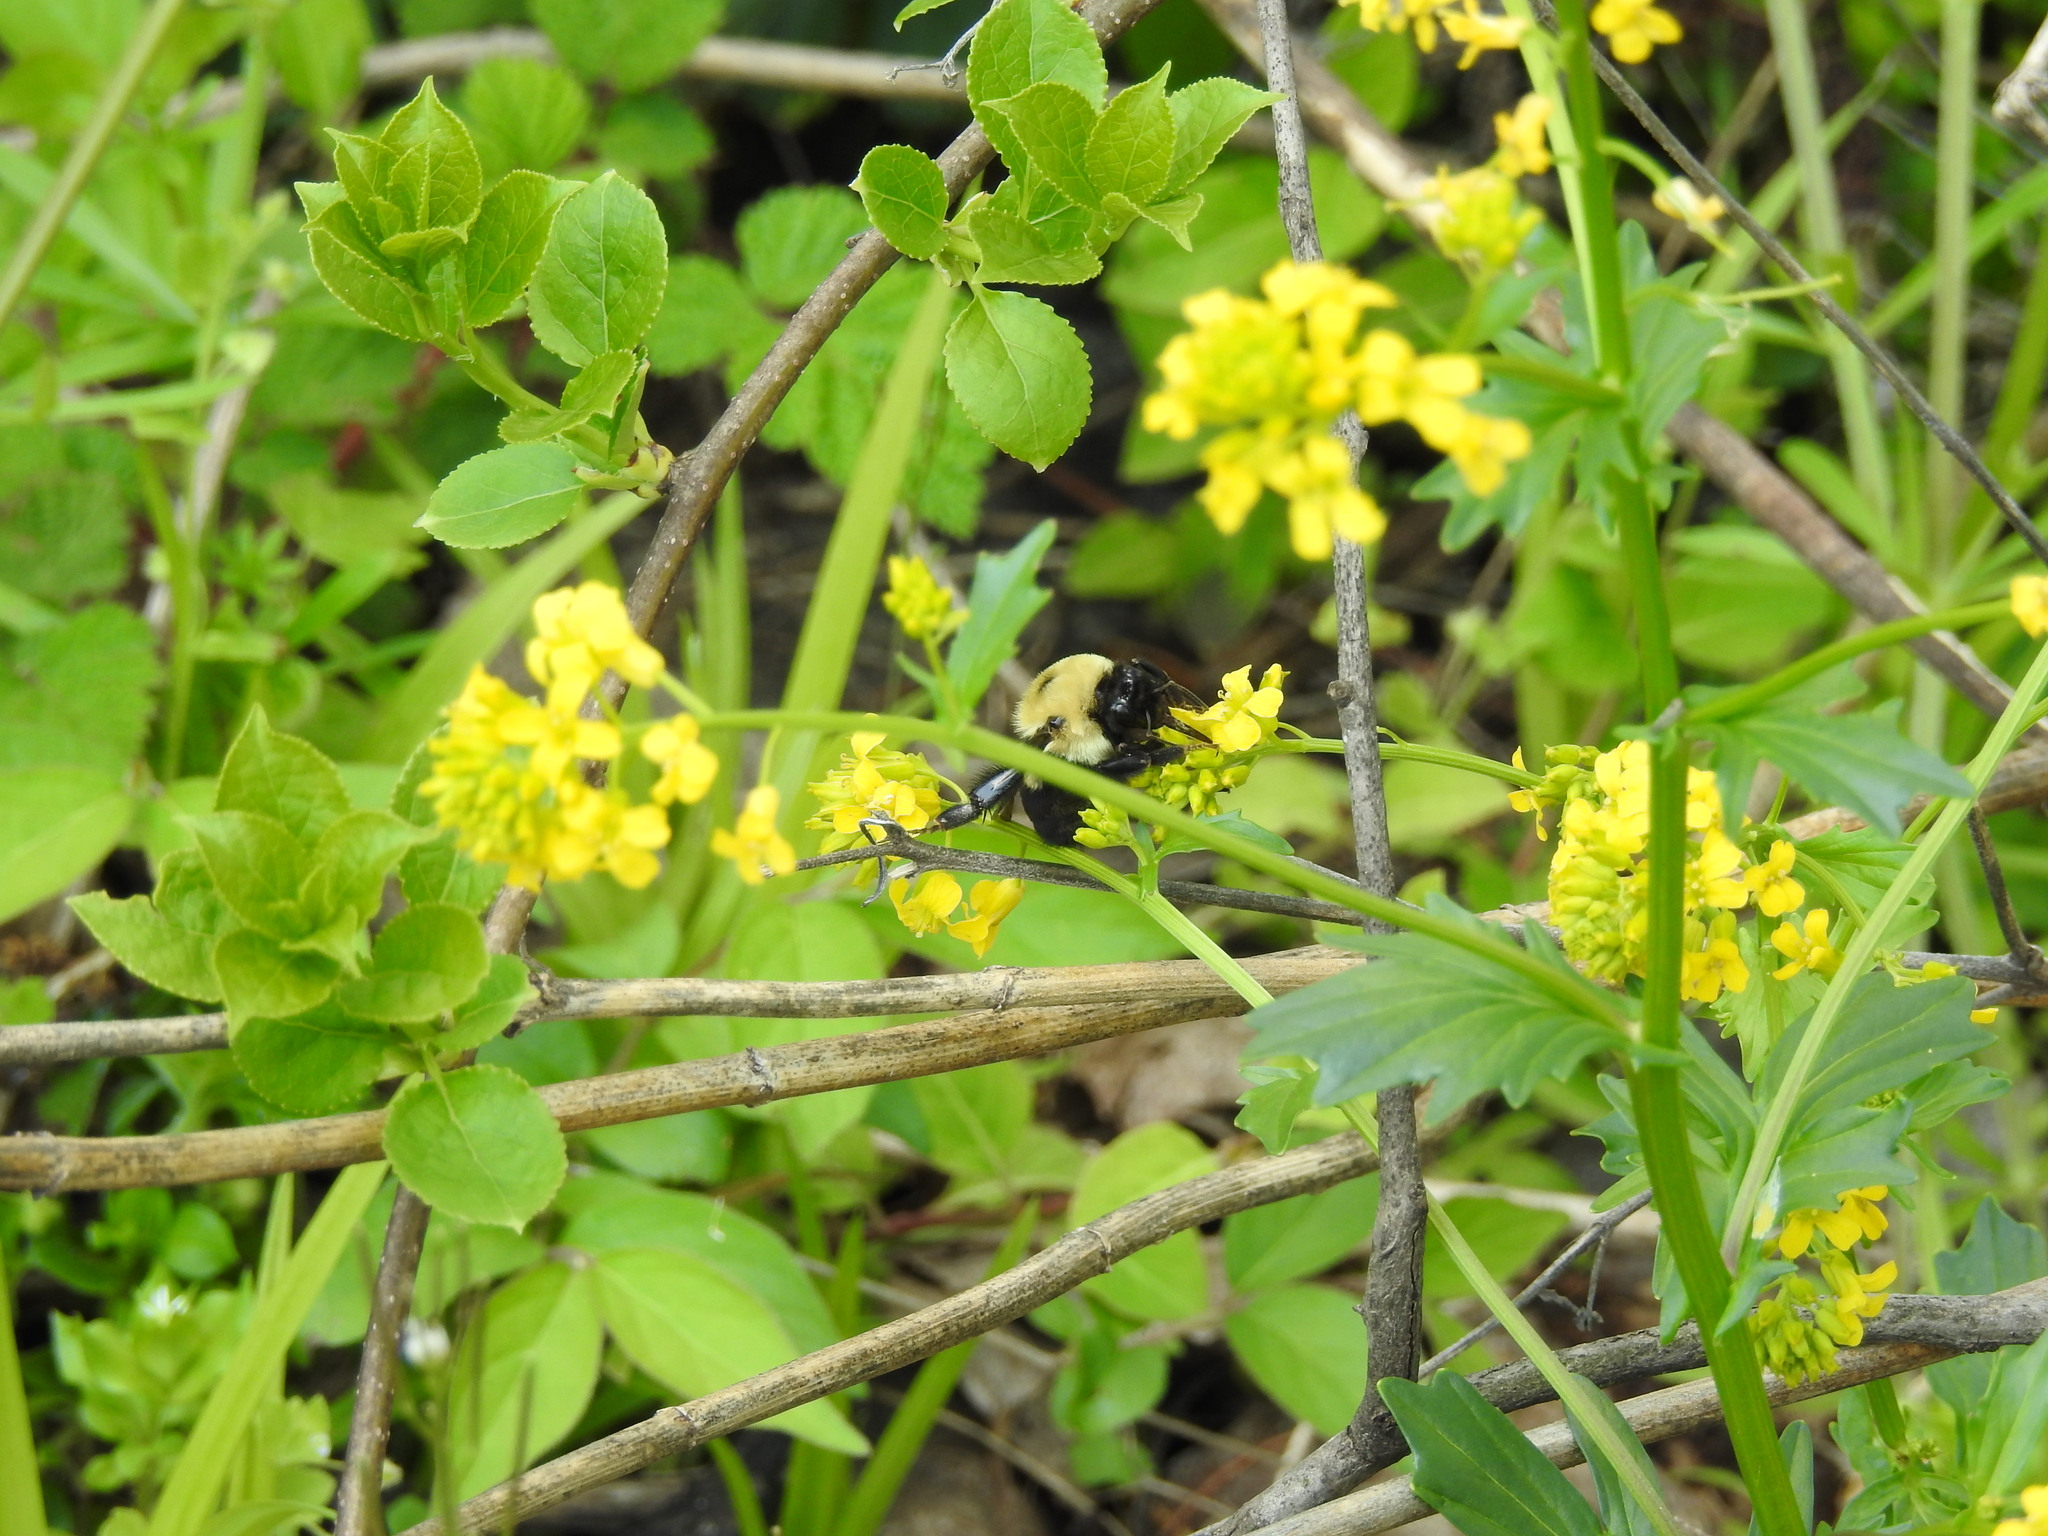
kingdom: Plantae
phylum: Tracheophyta
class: Magnoliopsida
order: Brassicales
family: Brassicaceae
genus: Barbarea
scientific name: Barbarea vulgaris
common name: Cressy-greens
